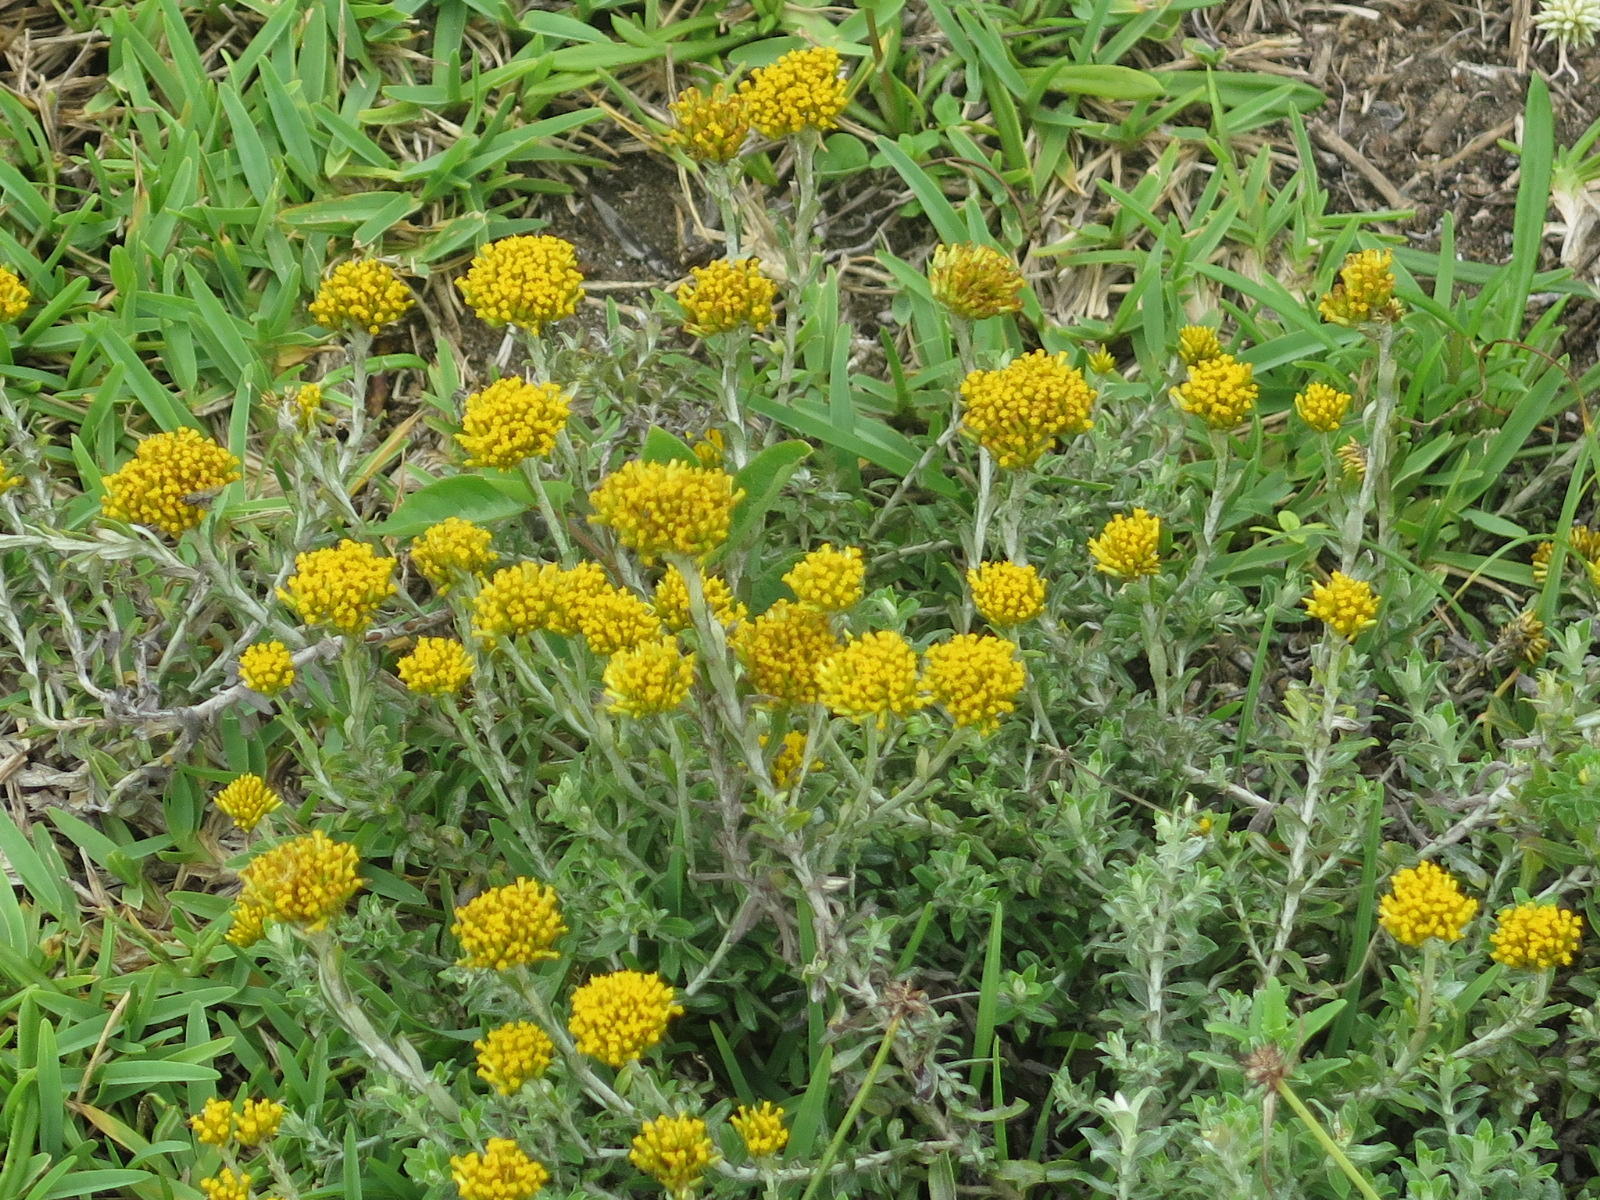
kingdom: Plantae
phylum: Tracheophyta
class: Magnoliopsida
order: Asterales
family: Asteraceae
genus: Helichrysum
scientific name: Helichrysum cymosum
